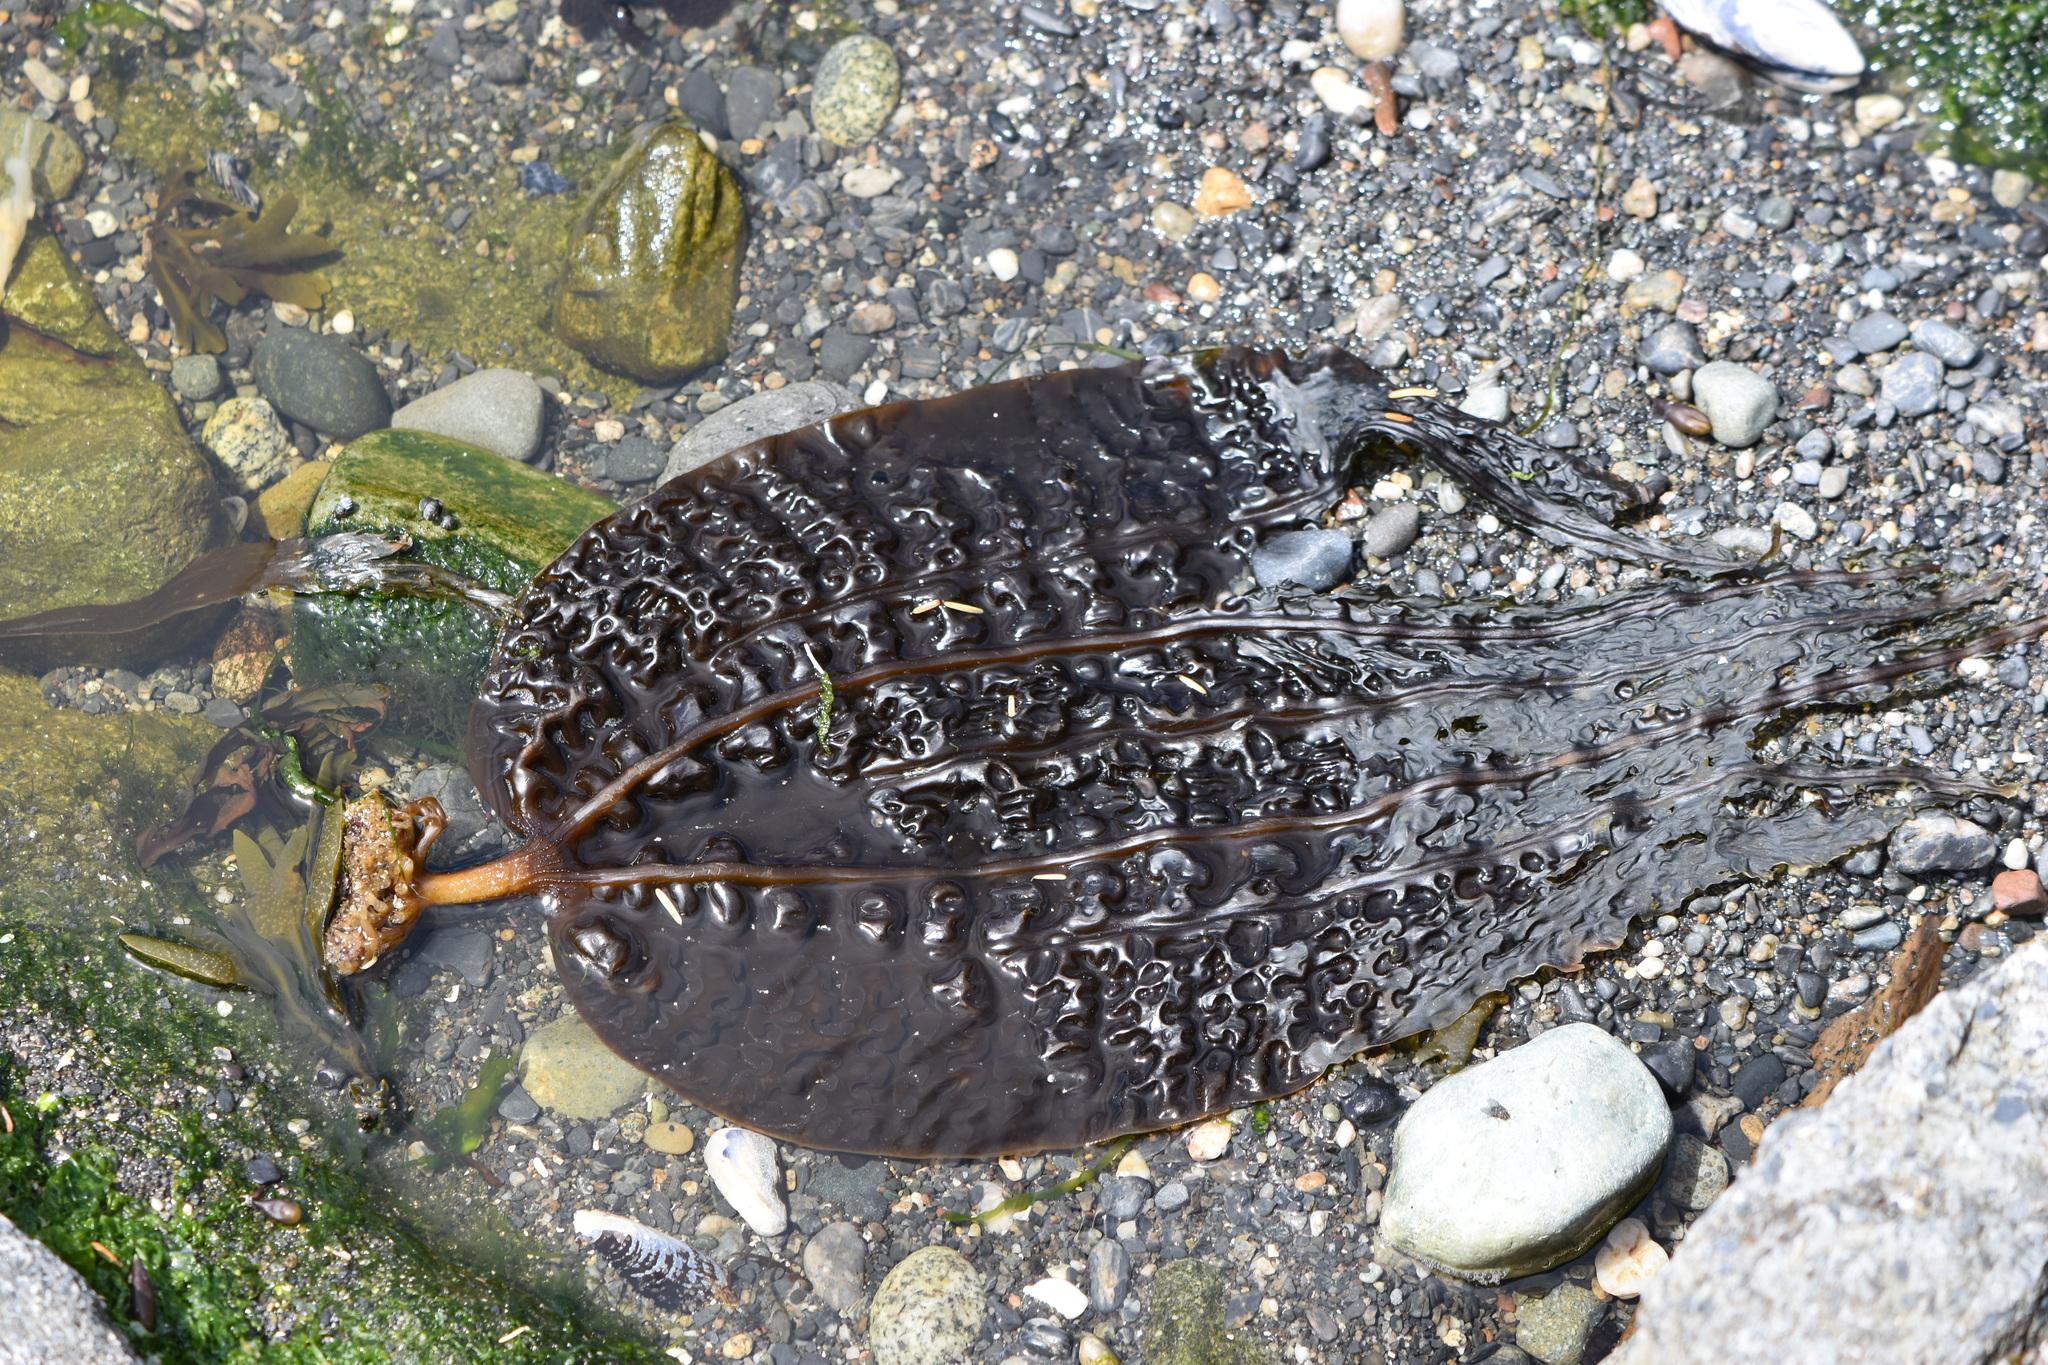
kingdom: Chromista
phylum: Ochrophyta
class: Phaeophyceae
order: Laminariales
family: Costariaceae
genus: Costaria
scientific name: Costaria costata
